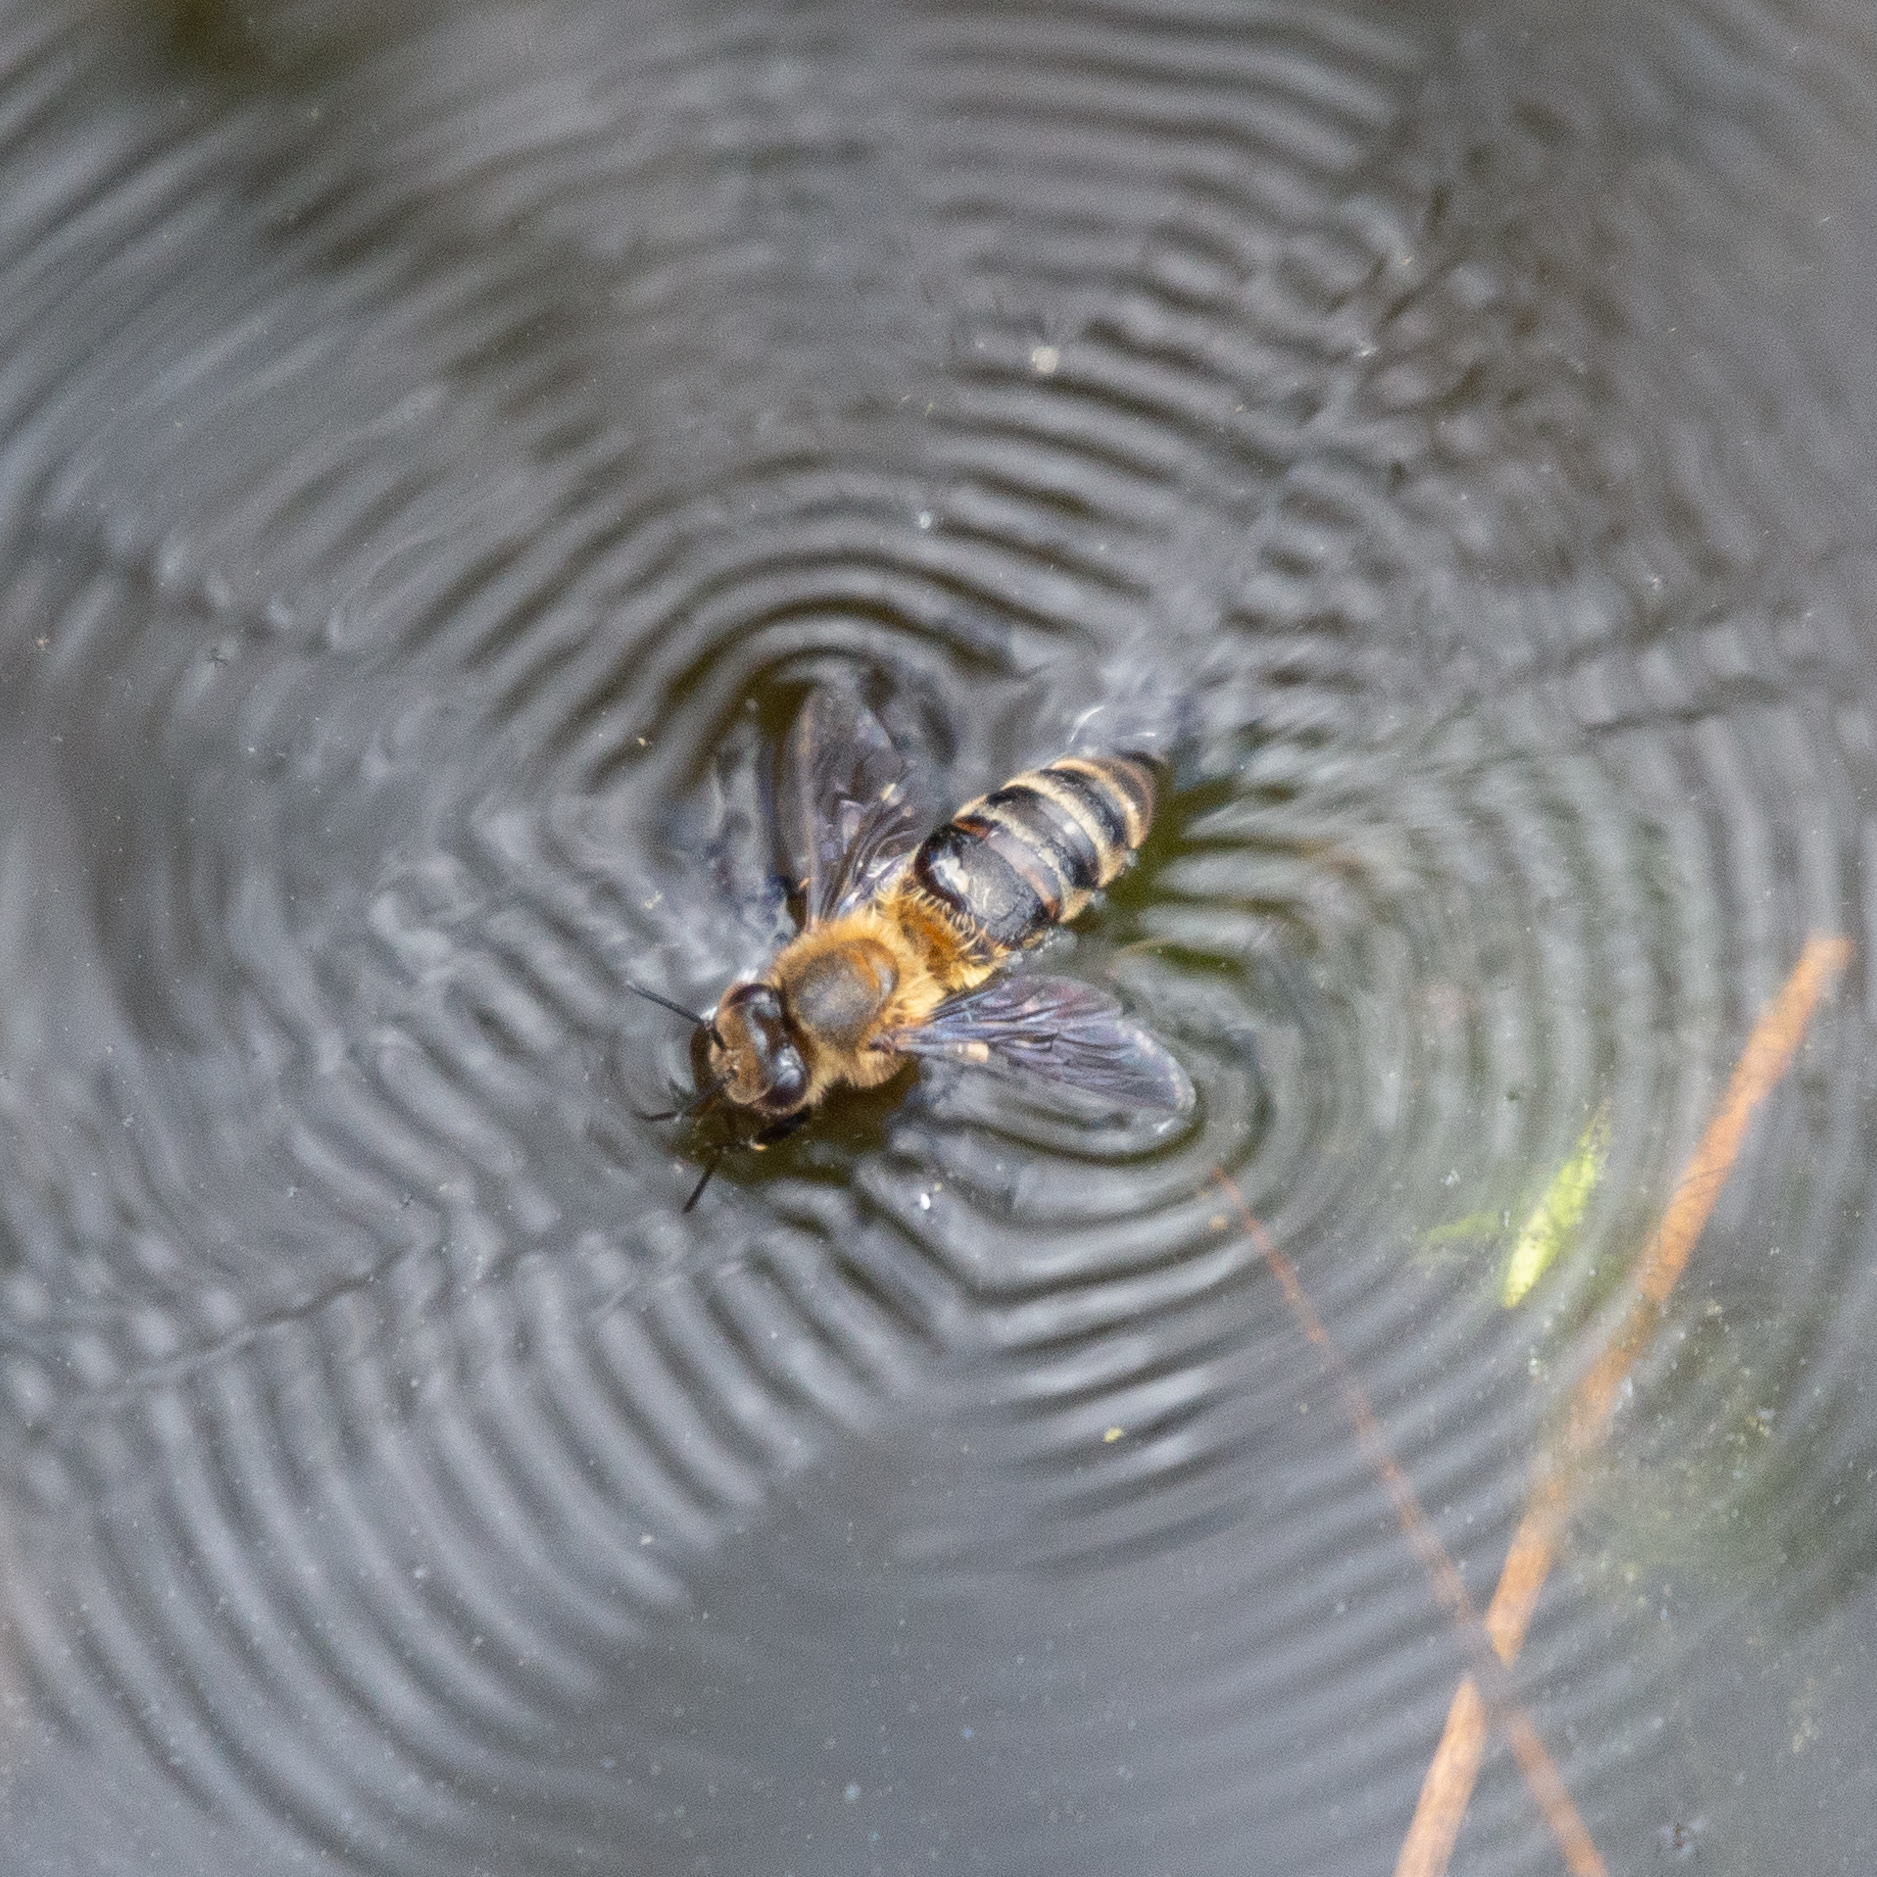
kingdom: Animalia
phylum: Arthropoda
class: Insecta
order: Hymenoptera
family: Apidae
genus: Apis
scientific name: Apis mellifera
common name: Honey bee
